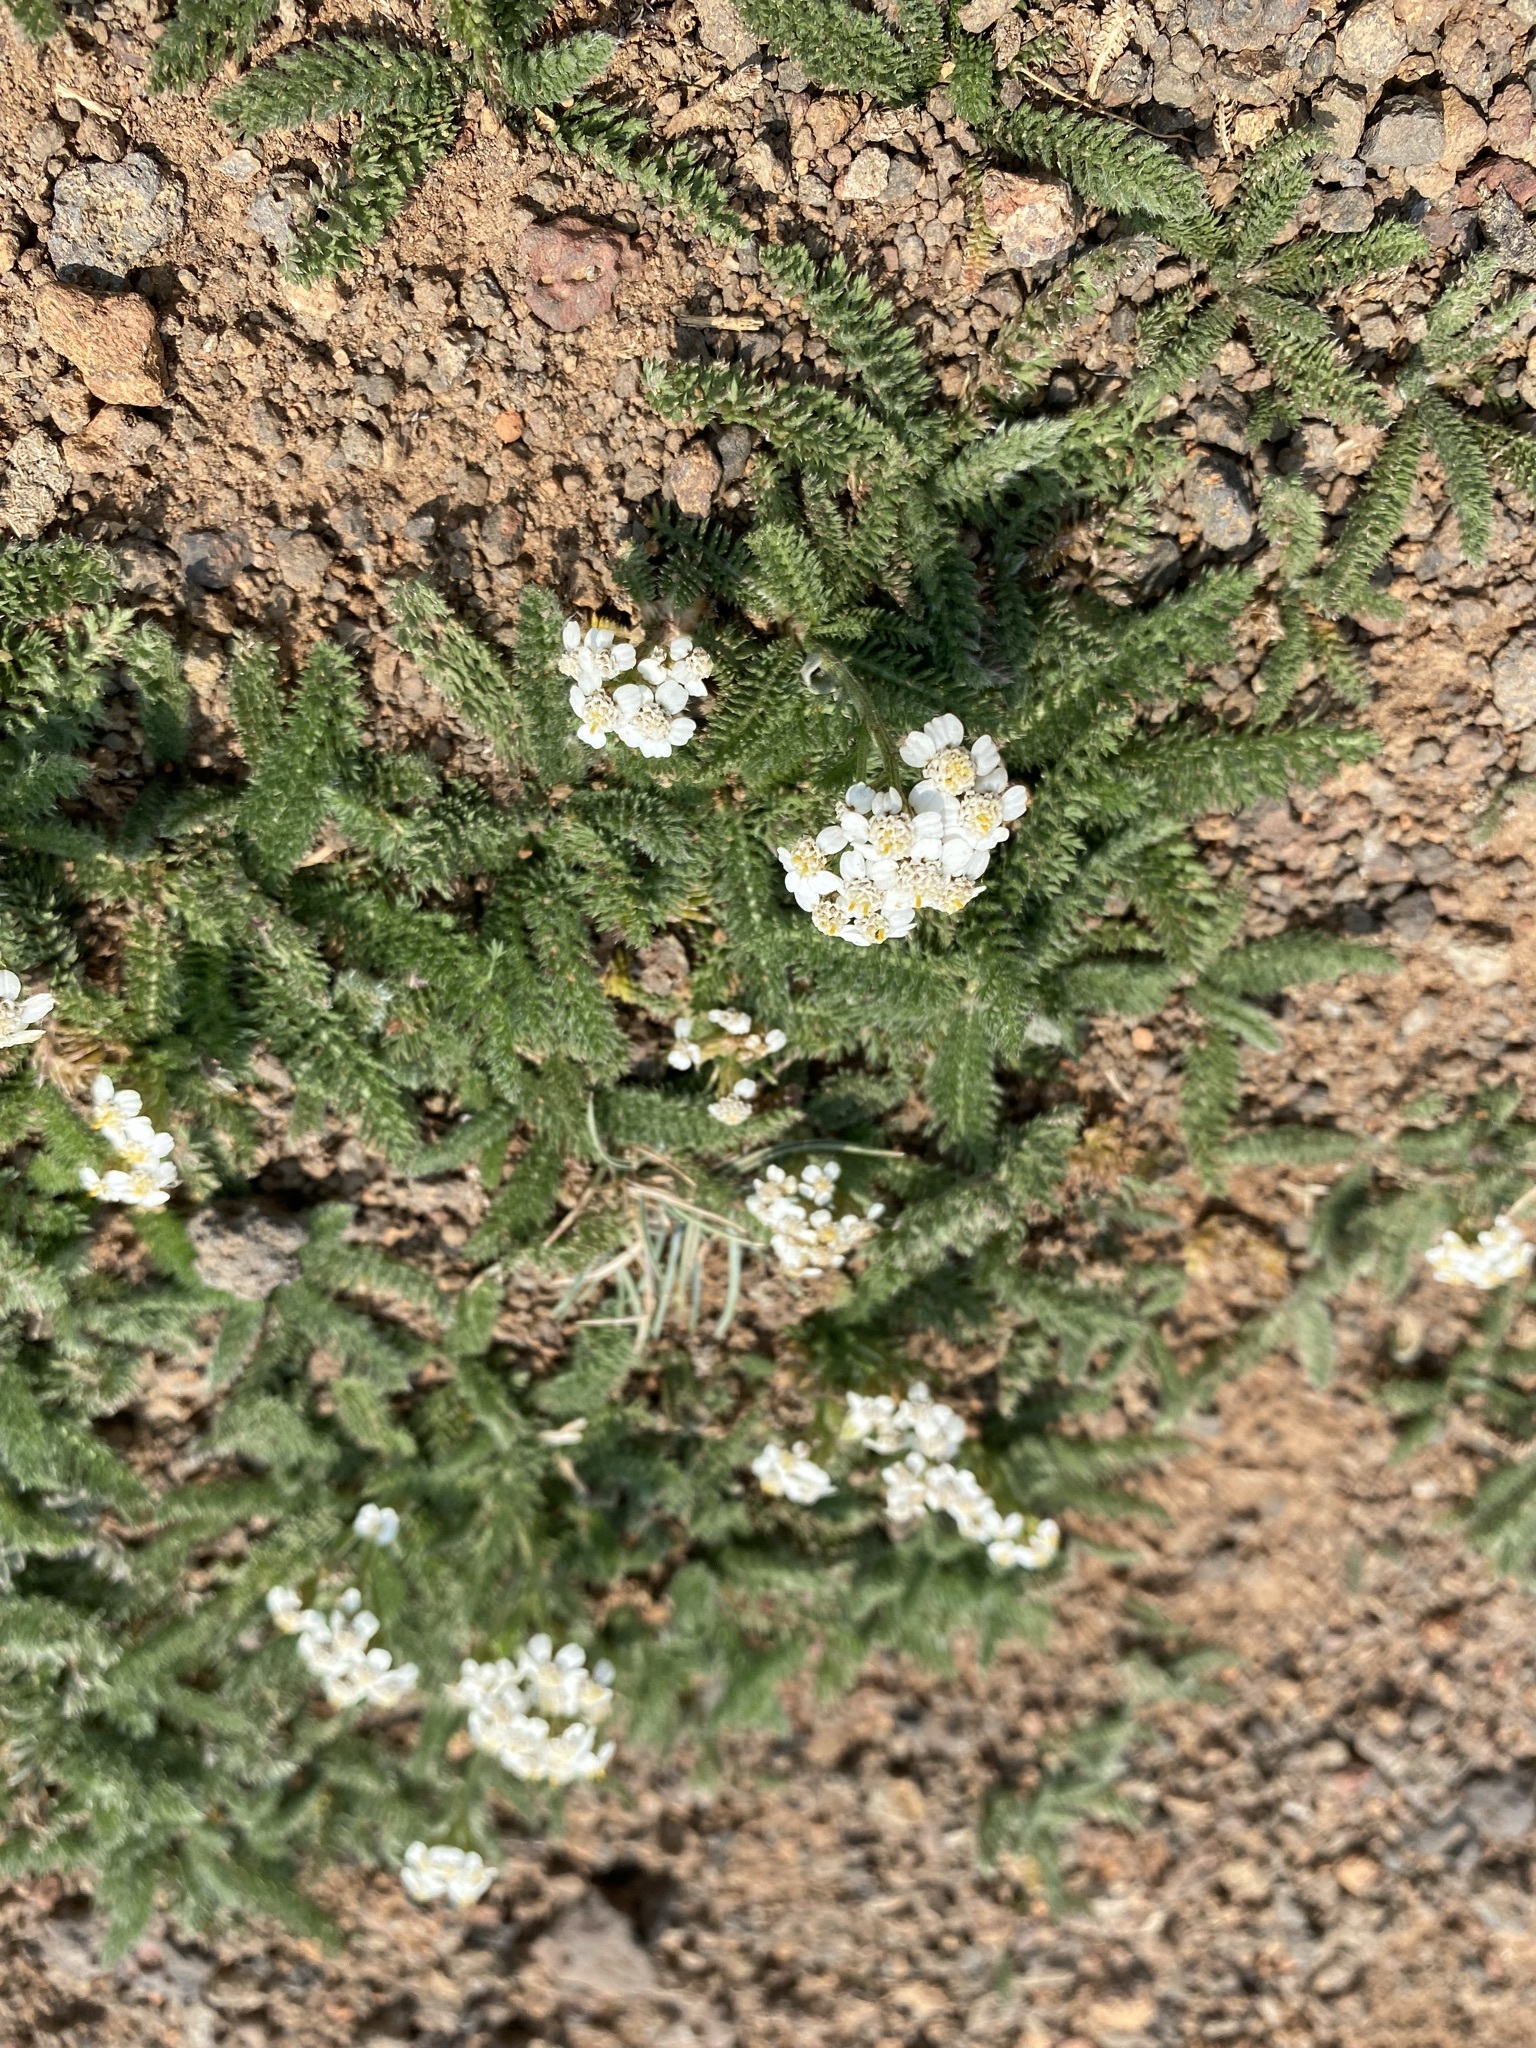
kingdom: Plantae
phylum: Tracheophyta
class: Magnoliopsida
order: Asterales
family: Asteraceae
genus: Achillea
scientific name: Achillea millefolium
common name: Yarrow
